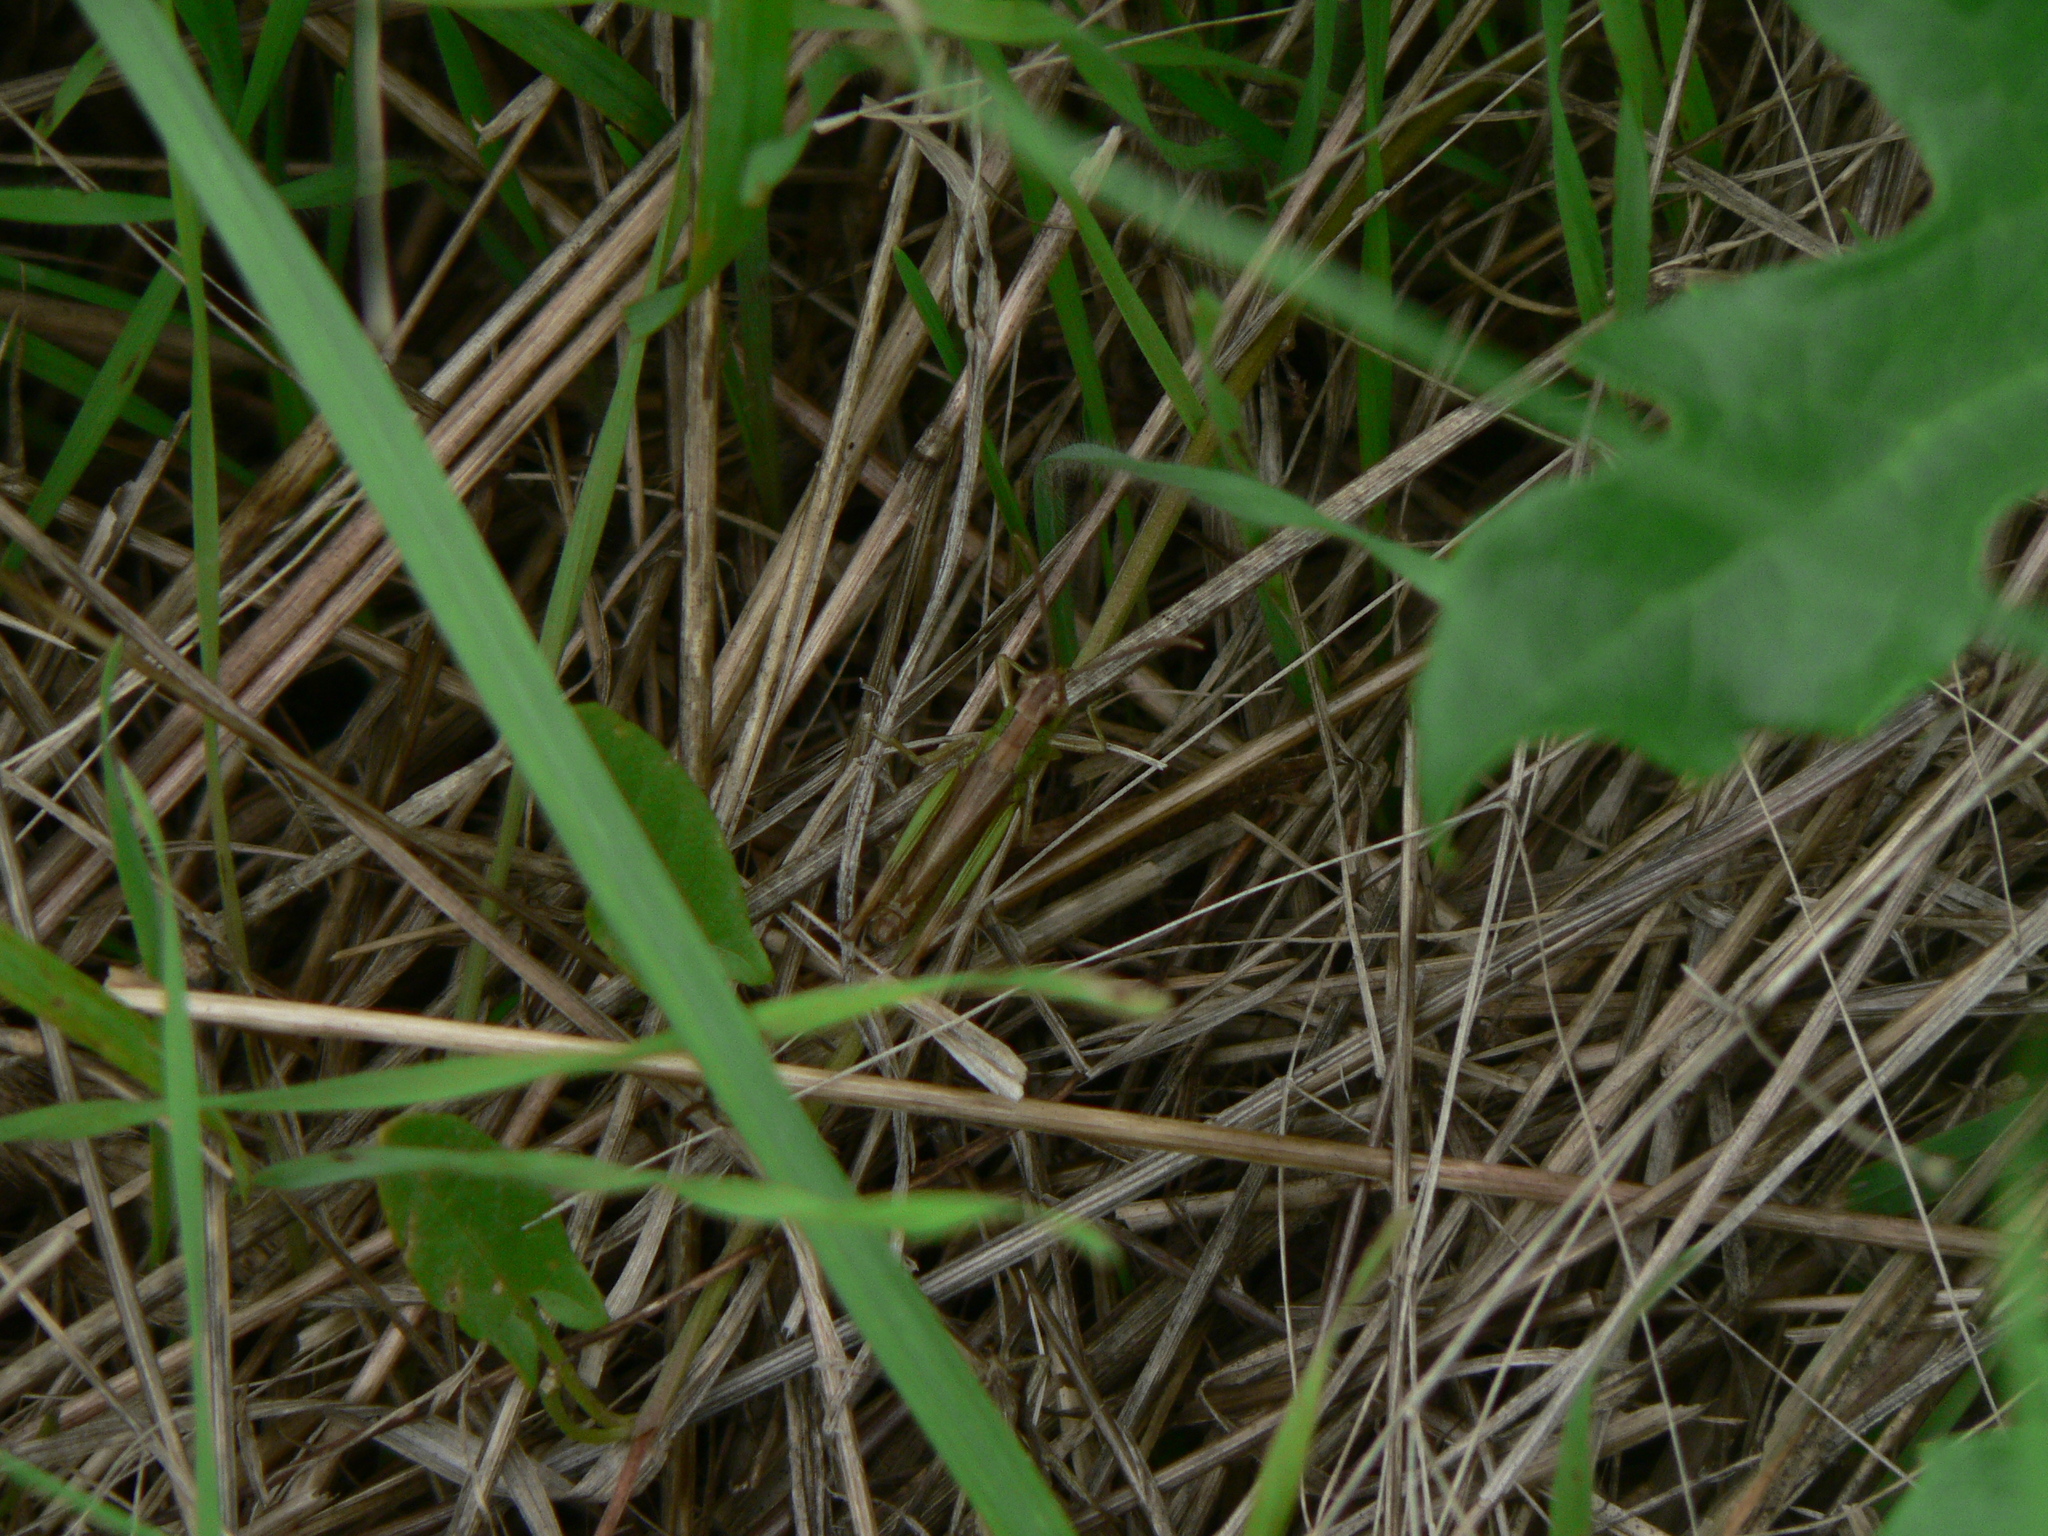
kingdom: Animalia
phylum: Arthropoda
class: Insecta
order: Orthoptera
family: Acrididae
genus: Pseudochorthippus
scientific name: Pseudochorthippus parallelus
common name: Meadow grasshopper
